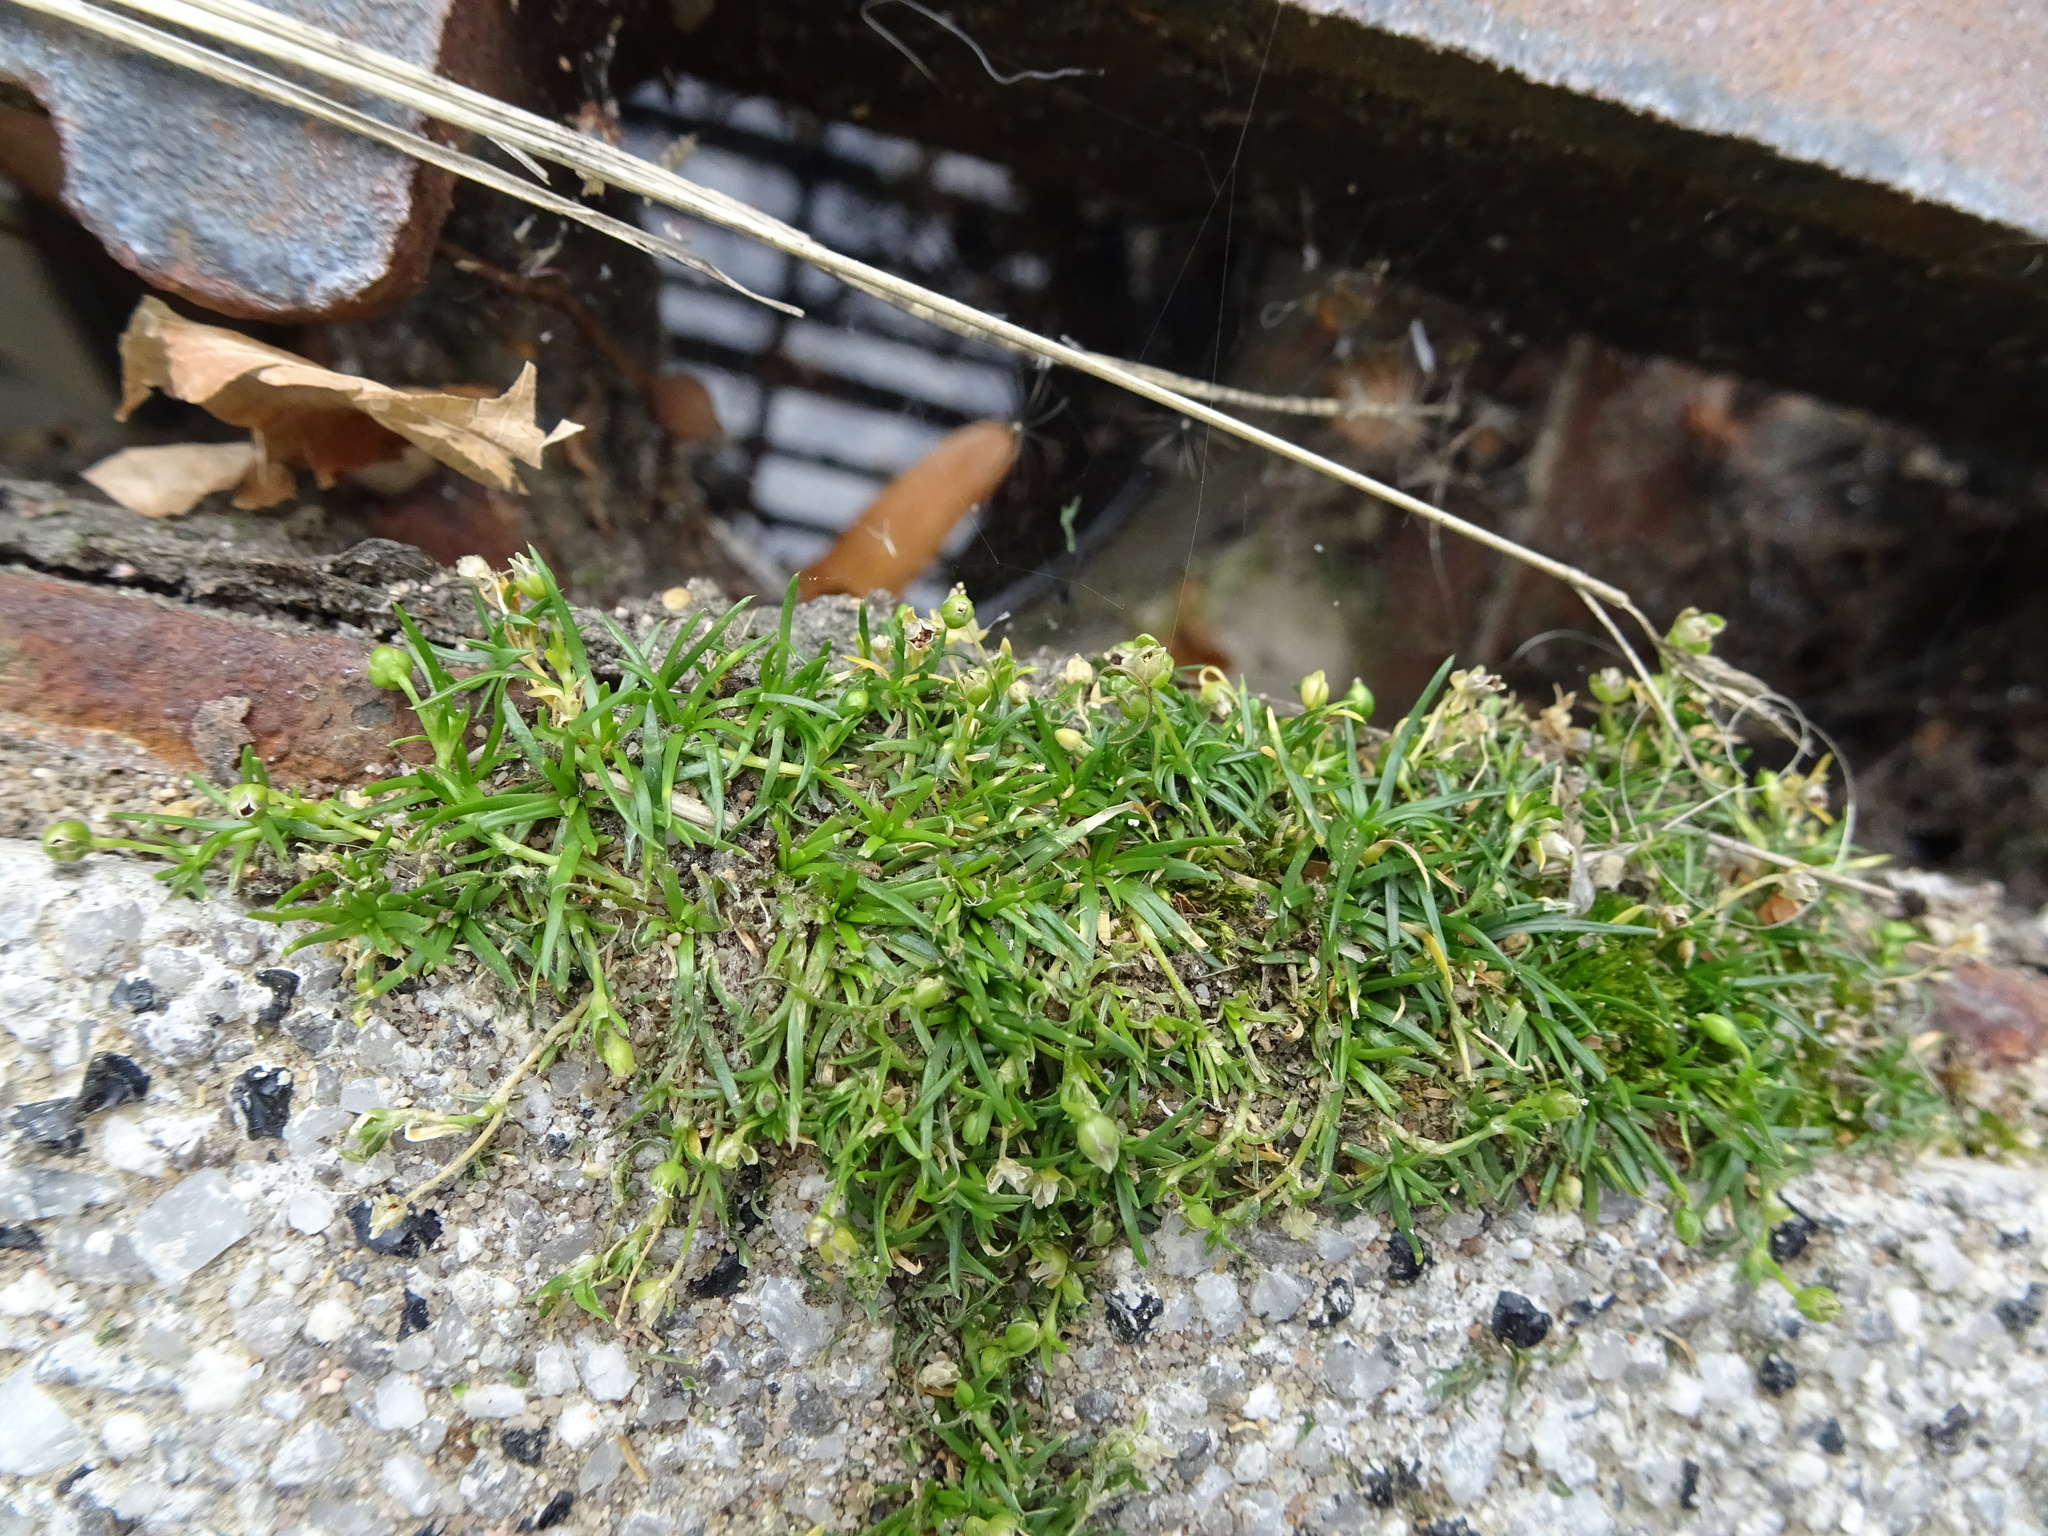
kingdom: Plantae
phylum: Tracheophyta
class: Magnoliopsida
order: Caryophyllales
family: Caryophyllaceae
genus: Sagina
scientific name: Sagina procumbens
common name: Procumbent pearlwort
